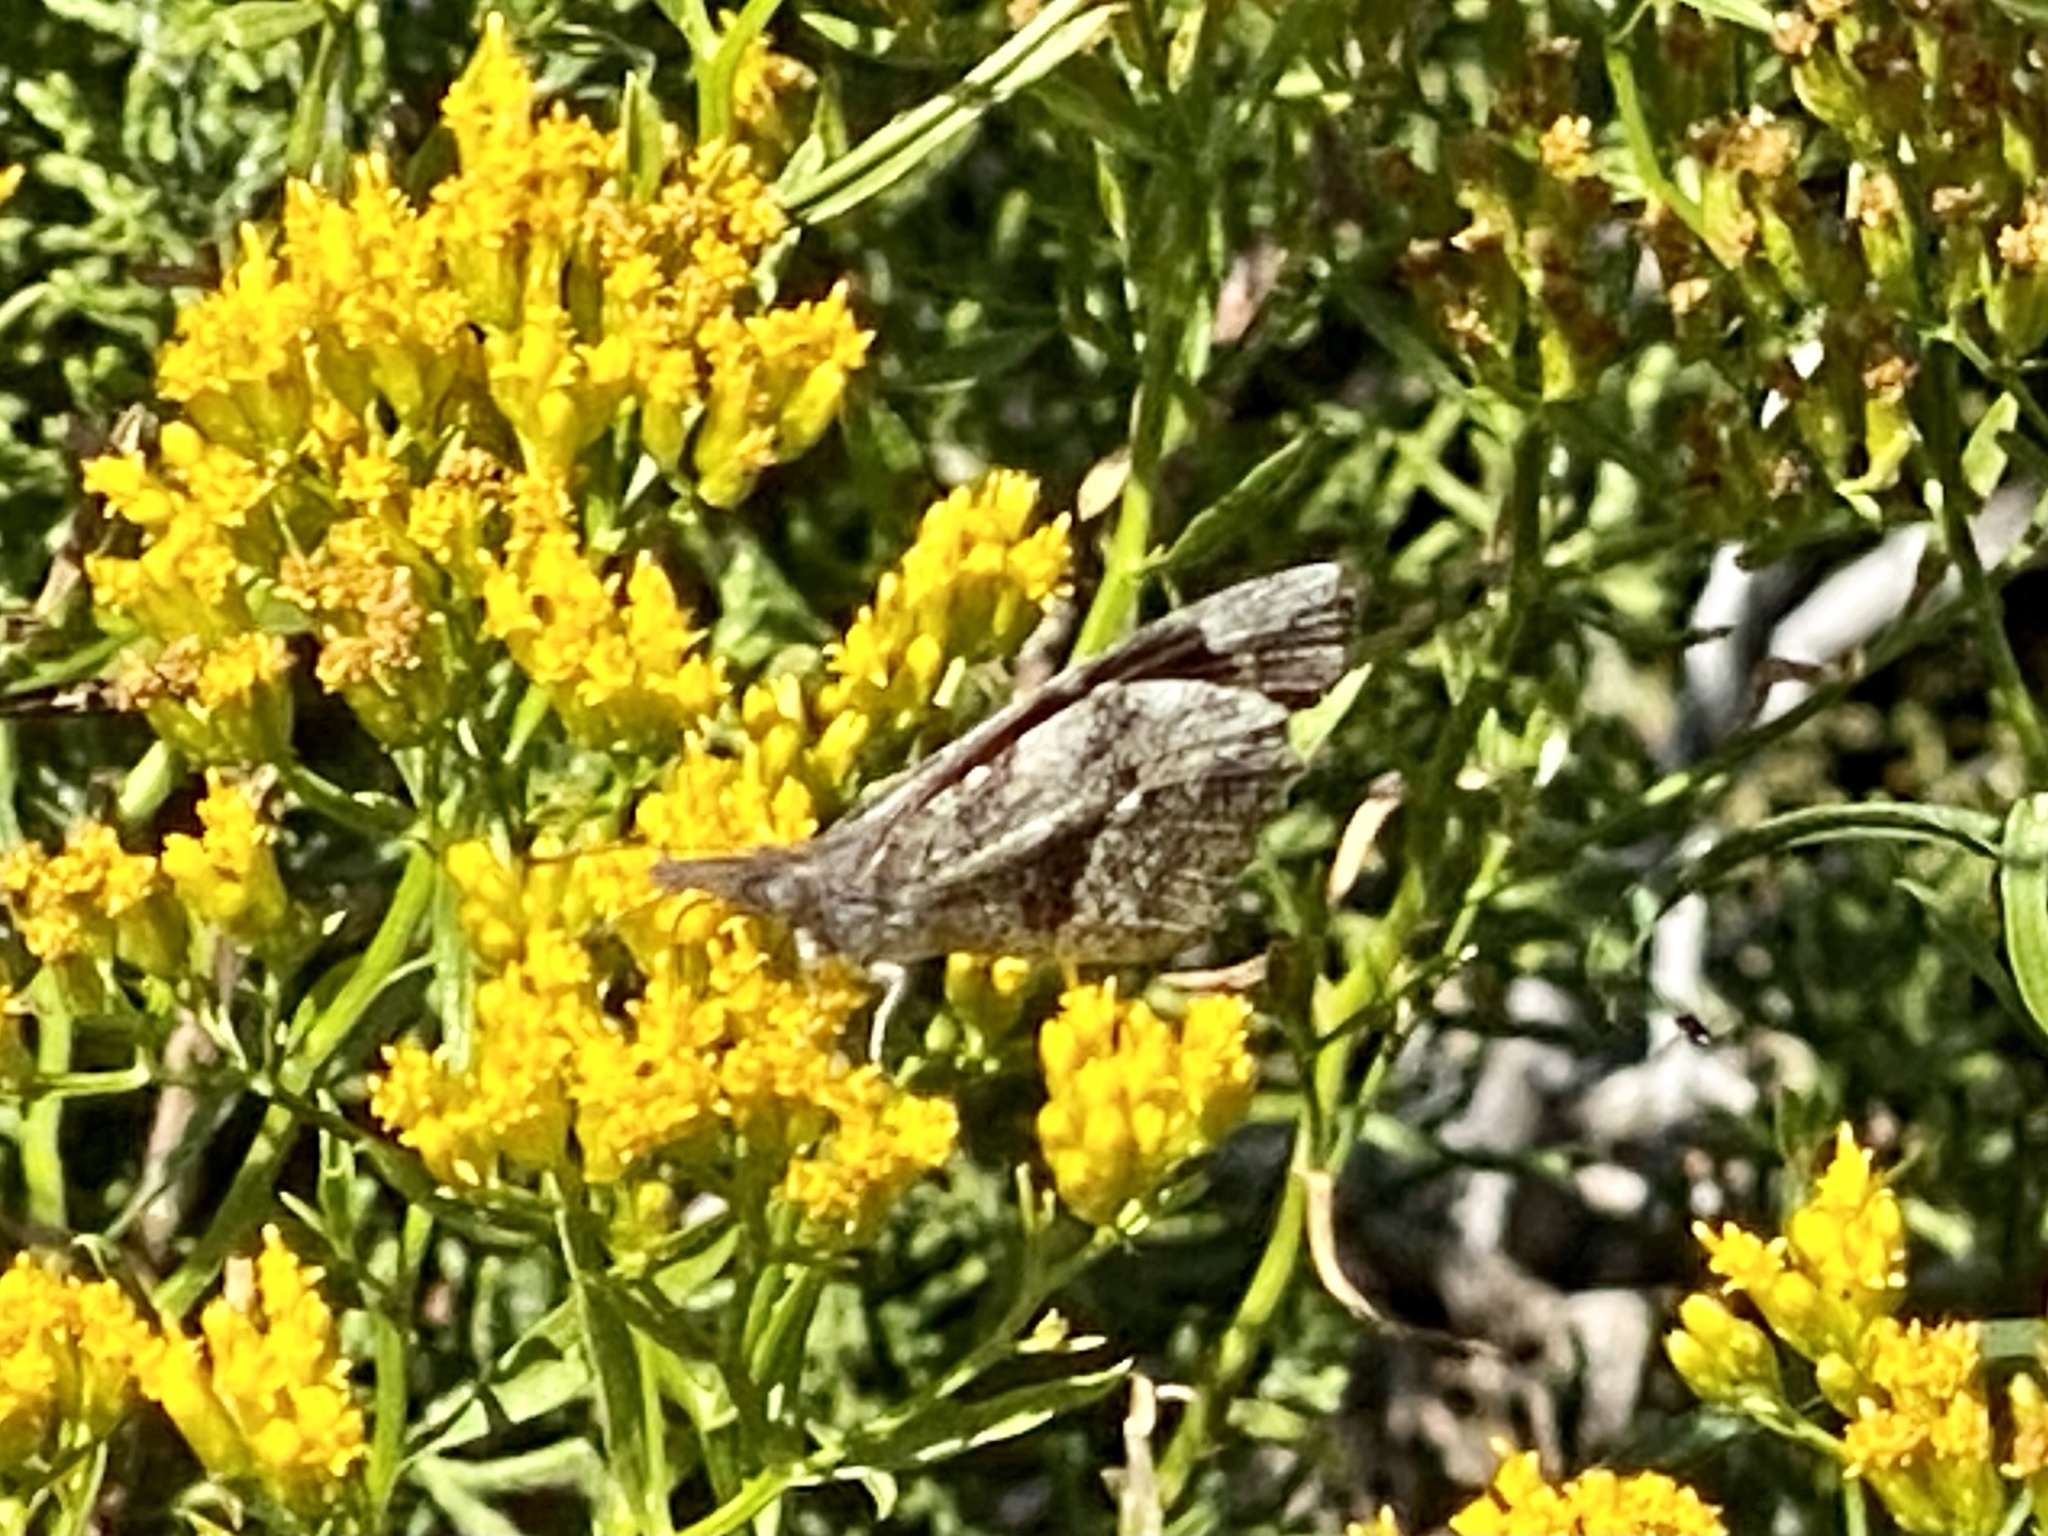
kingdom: Animalia
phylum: Arthropoda
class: Insecta
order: Lepidoptera
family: Nymphalidae
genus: Libytheana
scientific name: Libytheana carinenta
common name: American snout
